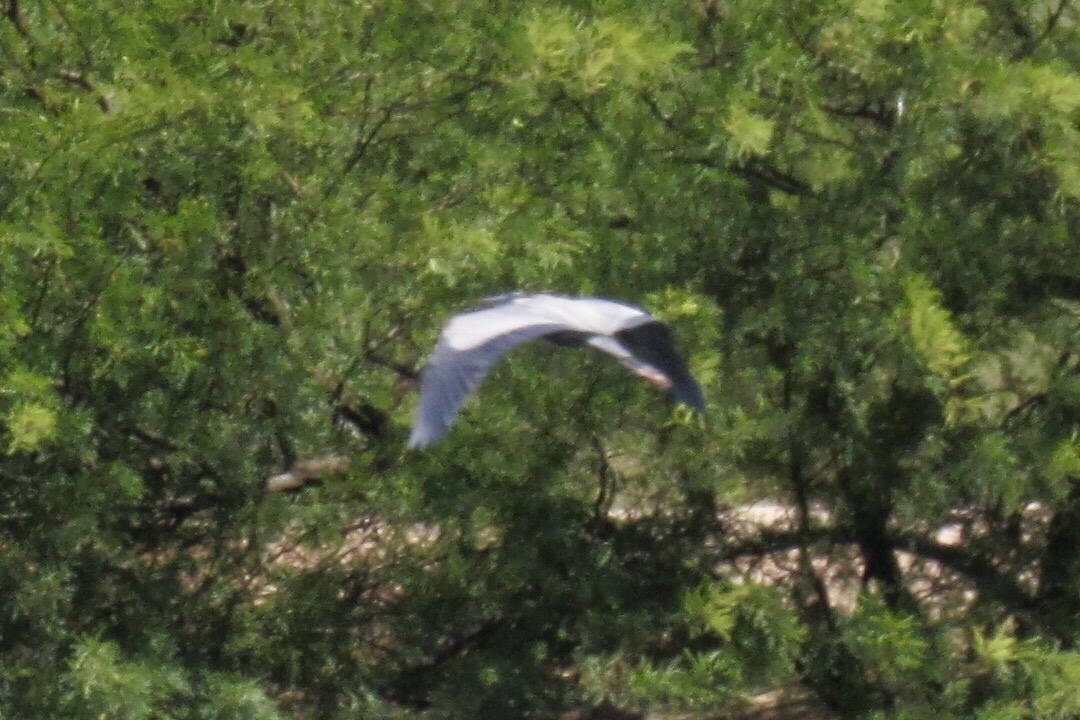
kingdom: Animalia
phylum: Chordata
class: Aves
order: Pelecaniformes
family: Ardeidae
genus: Ardea
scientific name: Ardea herodias
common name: Great blue heron
